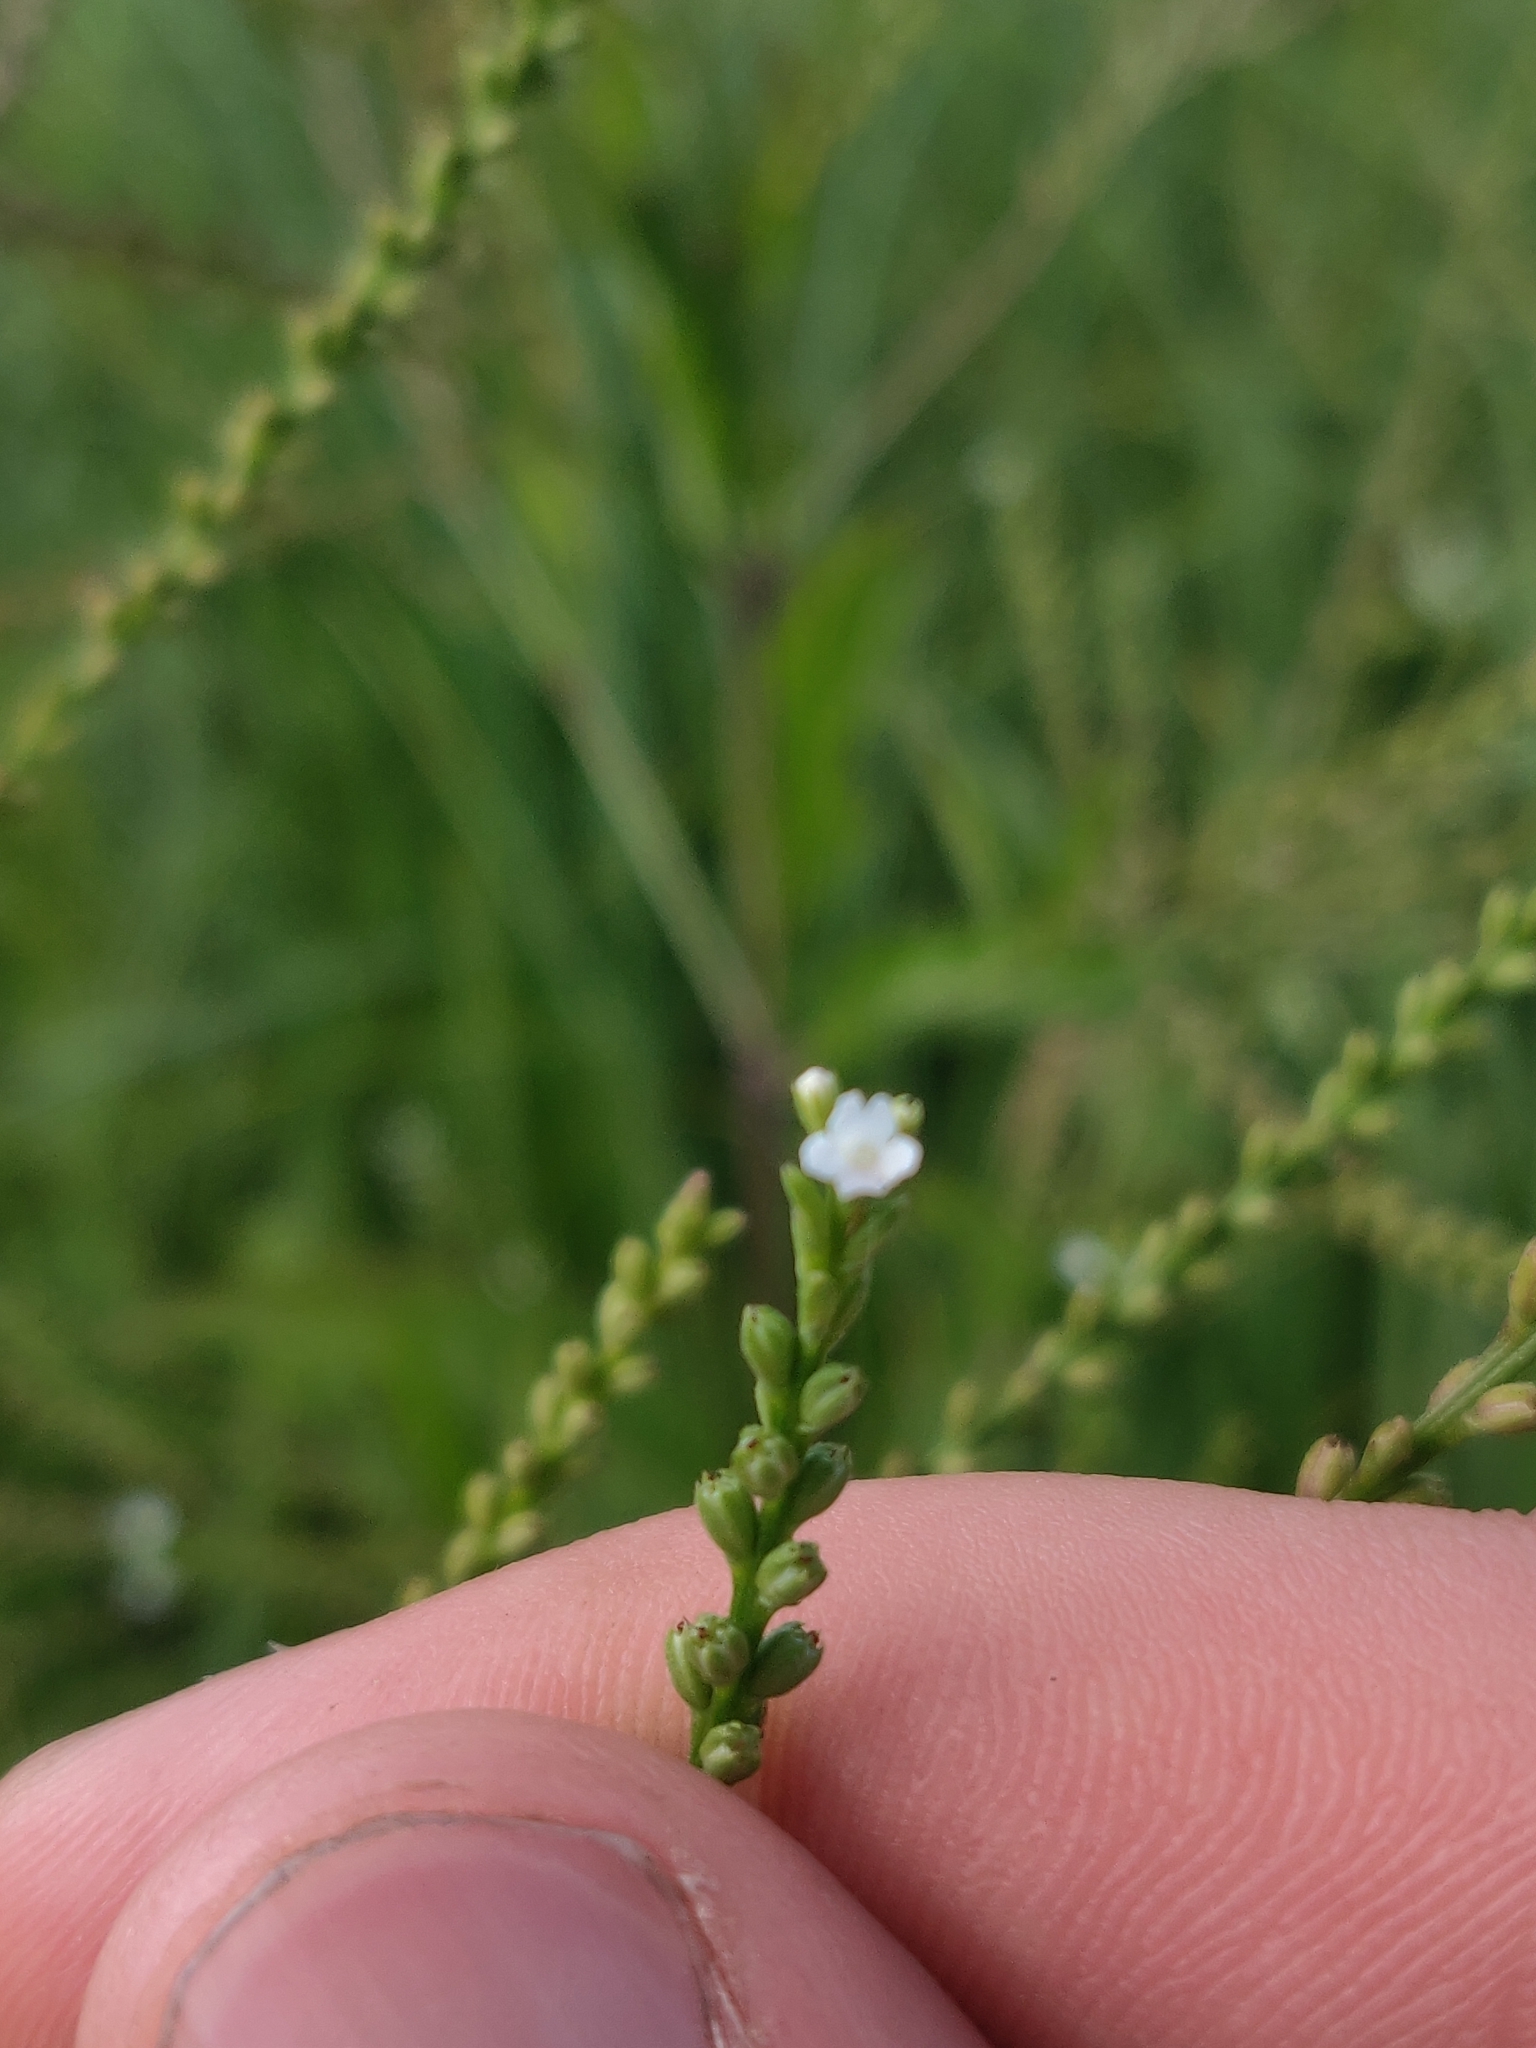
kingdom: Plantae
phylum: Tracheophyta
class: Magnoliopsida
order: Lamiales
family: Verbenaceae
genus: Verbena
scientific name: Verbena urticifolia
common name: Nettle-leaved vervain
